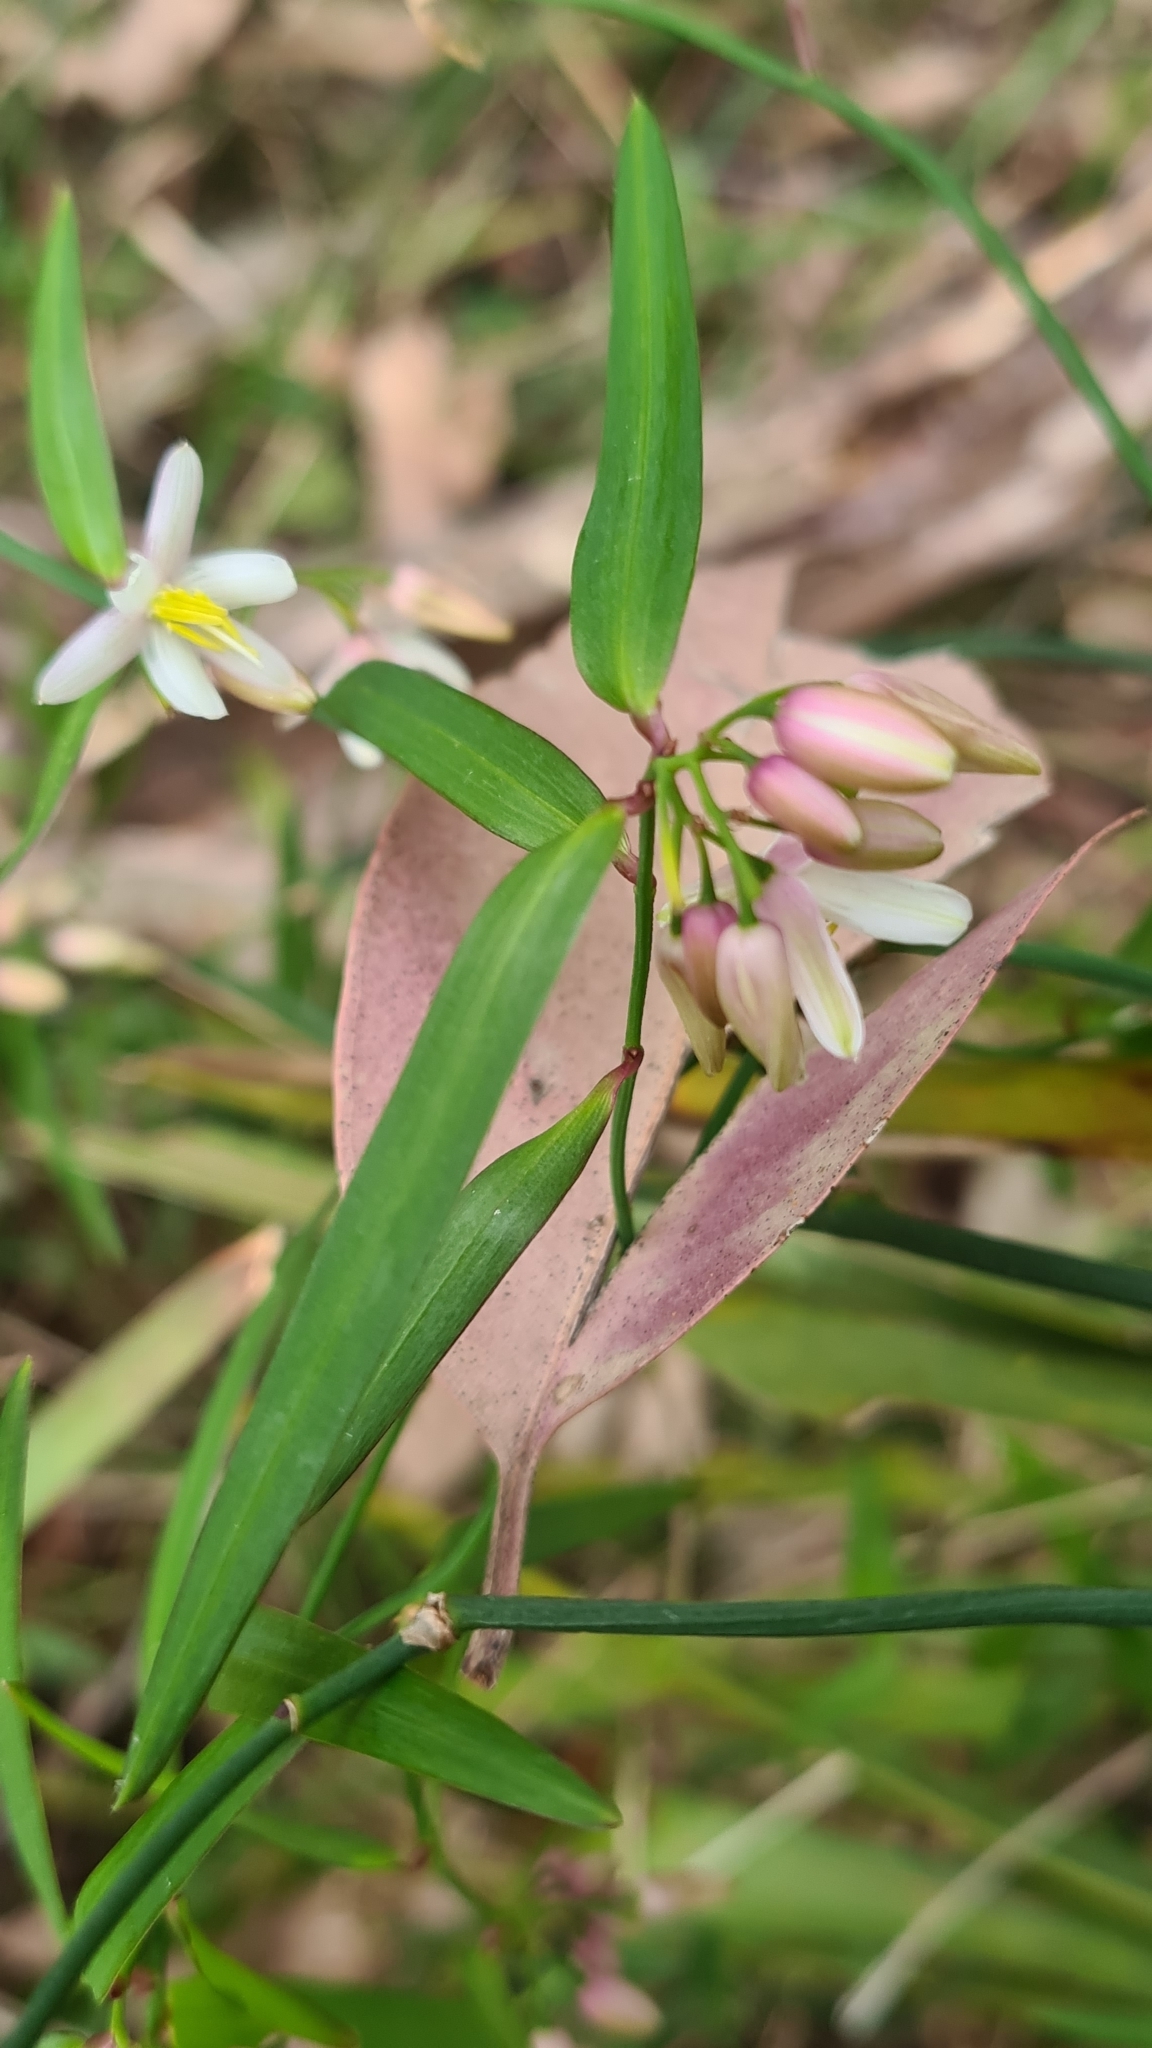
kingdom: Plantae
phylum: Tracheophyta
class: Liliopsida
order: Asparagales
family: Asphodelaceae
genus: Geitonoplesium
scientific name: Geitonoplesium cymosum
